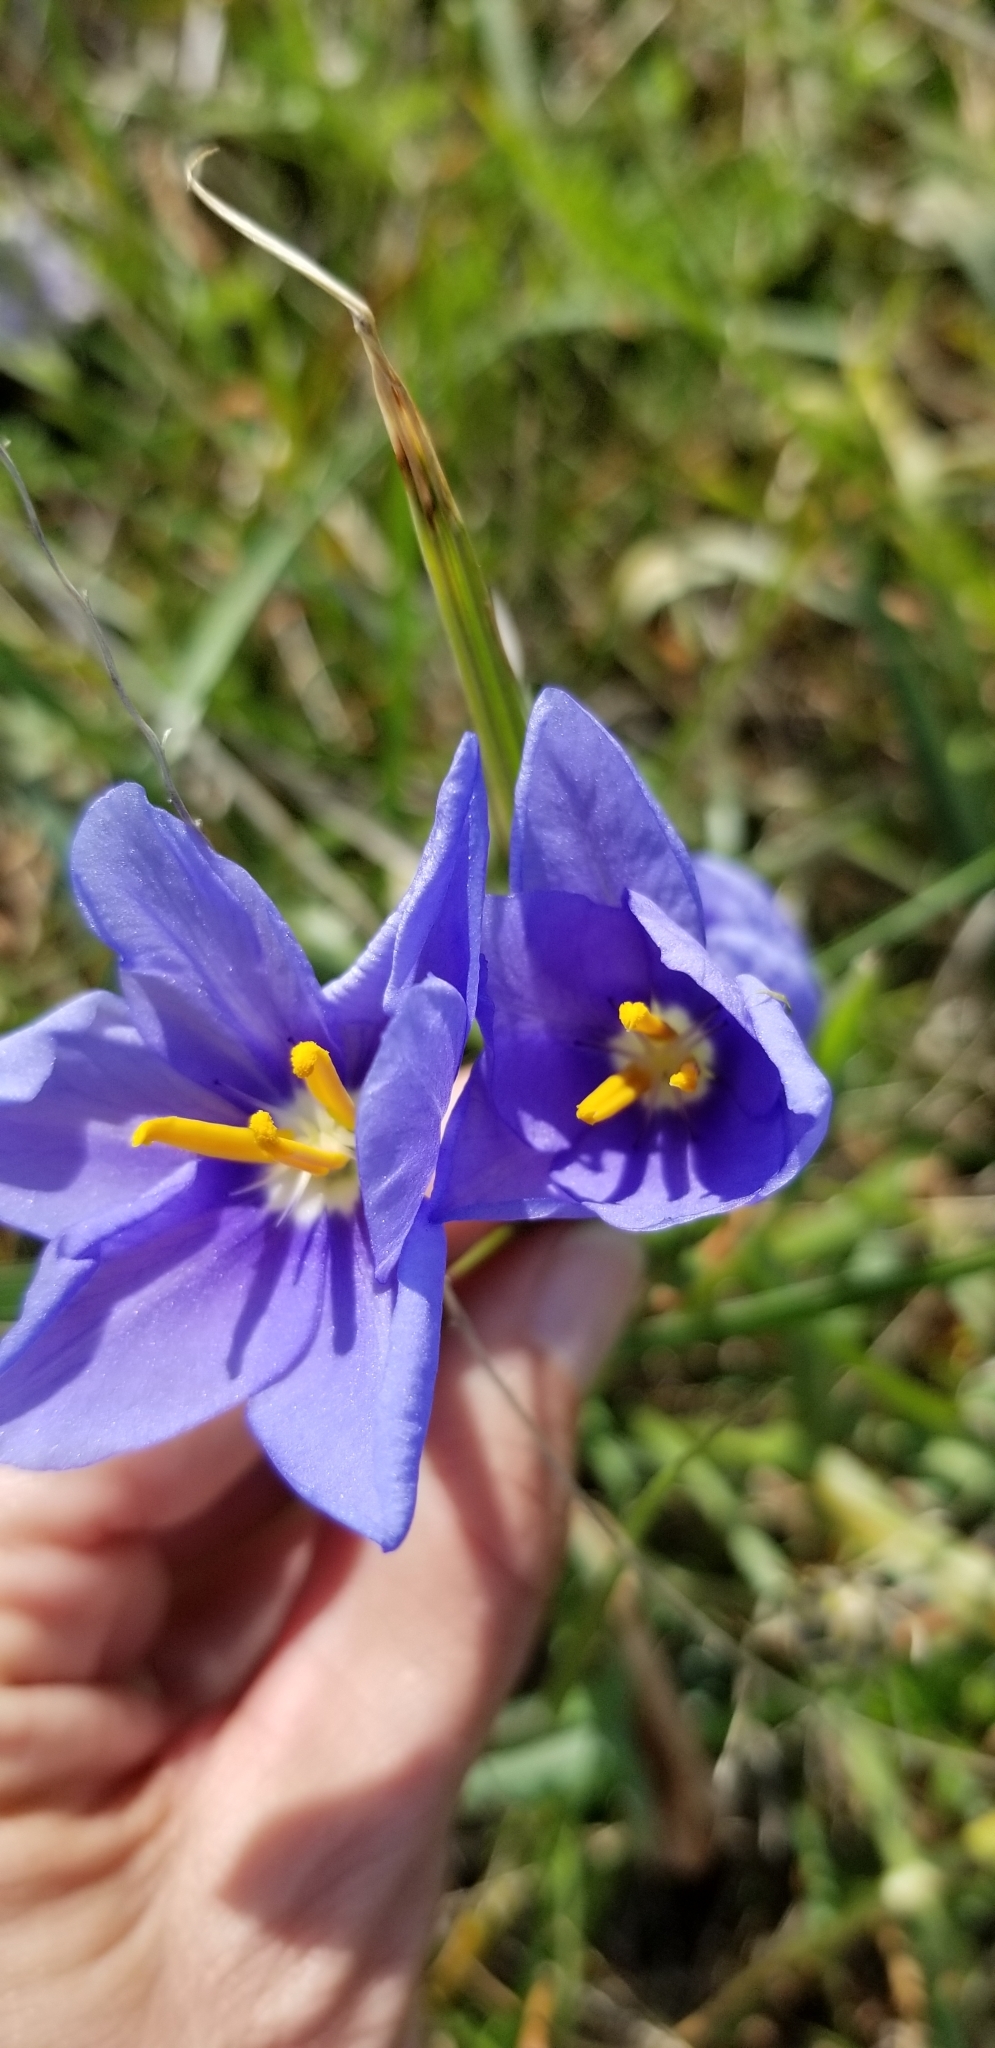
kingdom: Plantae
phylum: Tracheophyta
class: Liliopsida
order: Asparagales
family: Iridaceae
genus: Nemastylis
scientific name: Nemastylis geminiflora
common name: Prairie celestial
